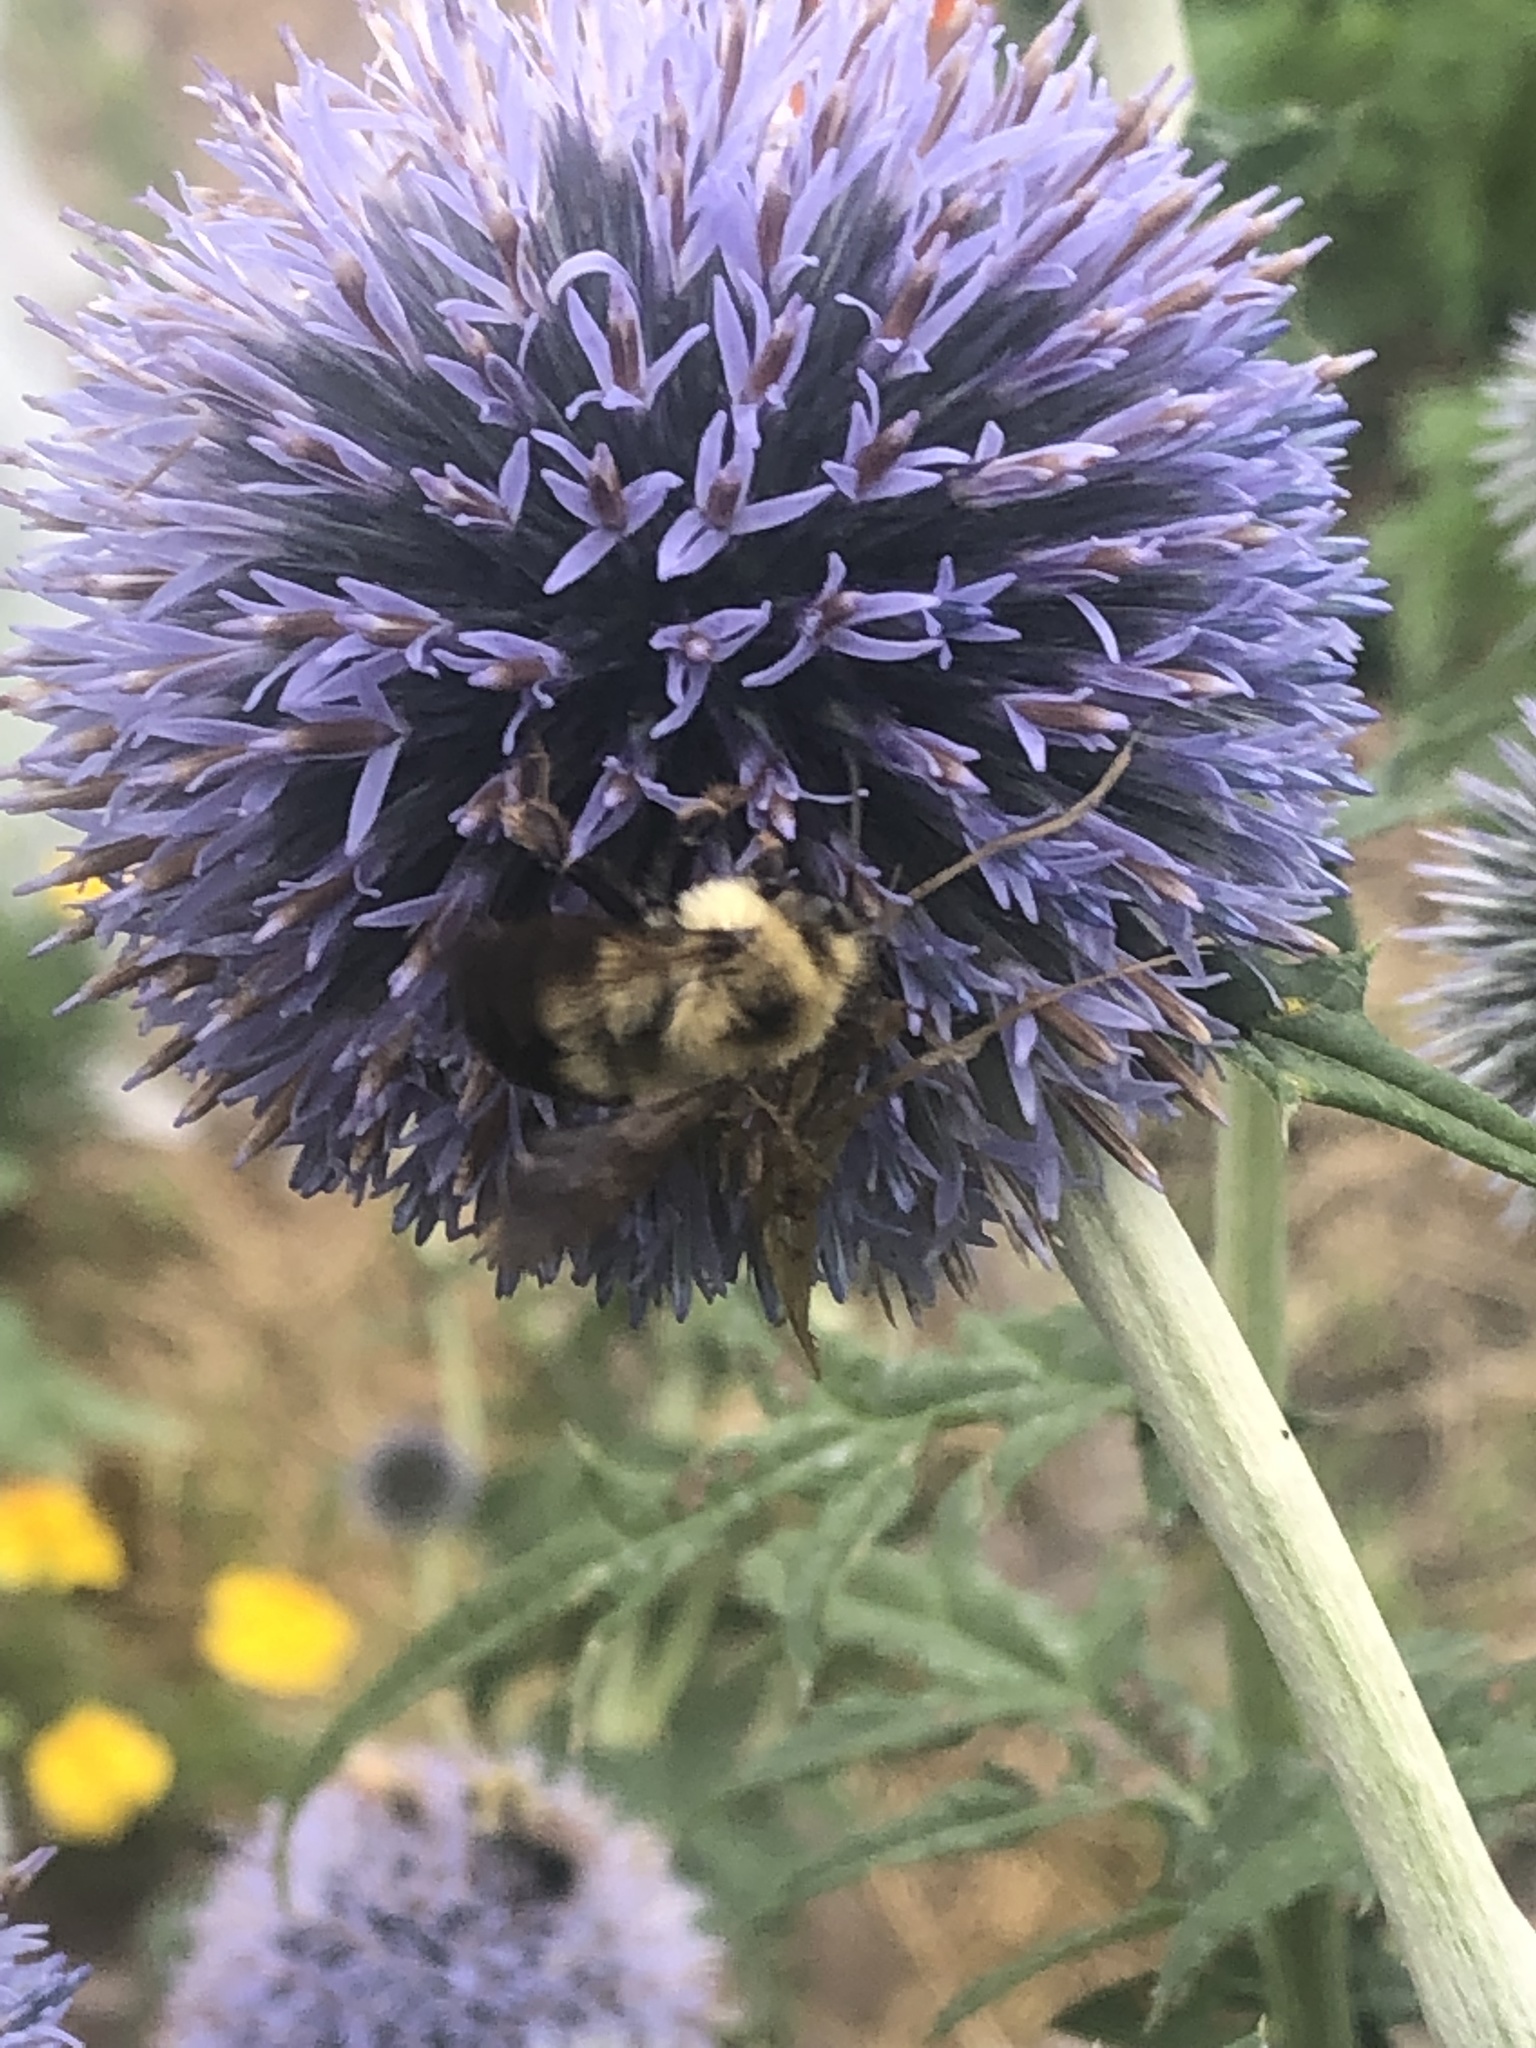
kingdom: Animalia
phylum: Arthropoda
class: Insecta
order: Hymenoptera
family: Apidae
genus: Bombus
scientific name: Bombus bimaculatus
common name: Two-spotted bumble bee
